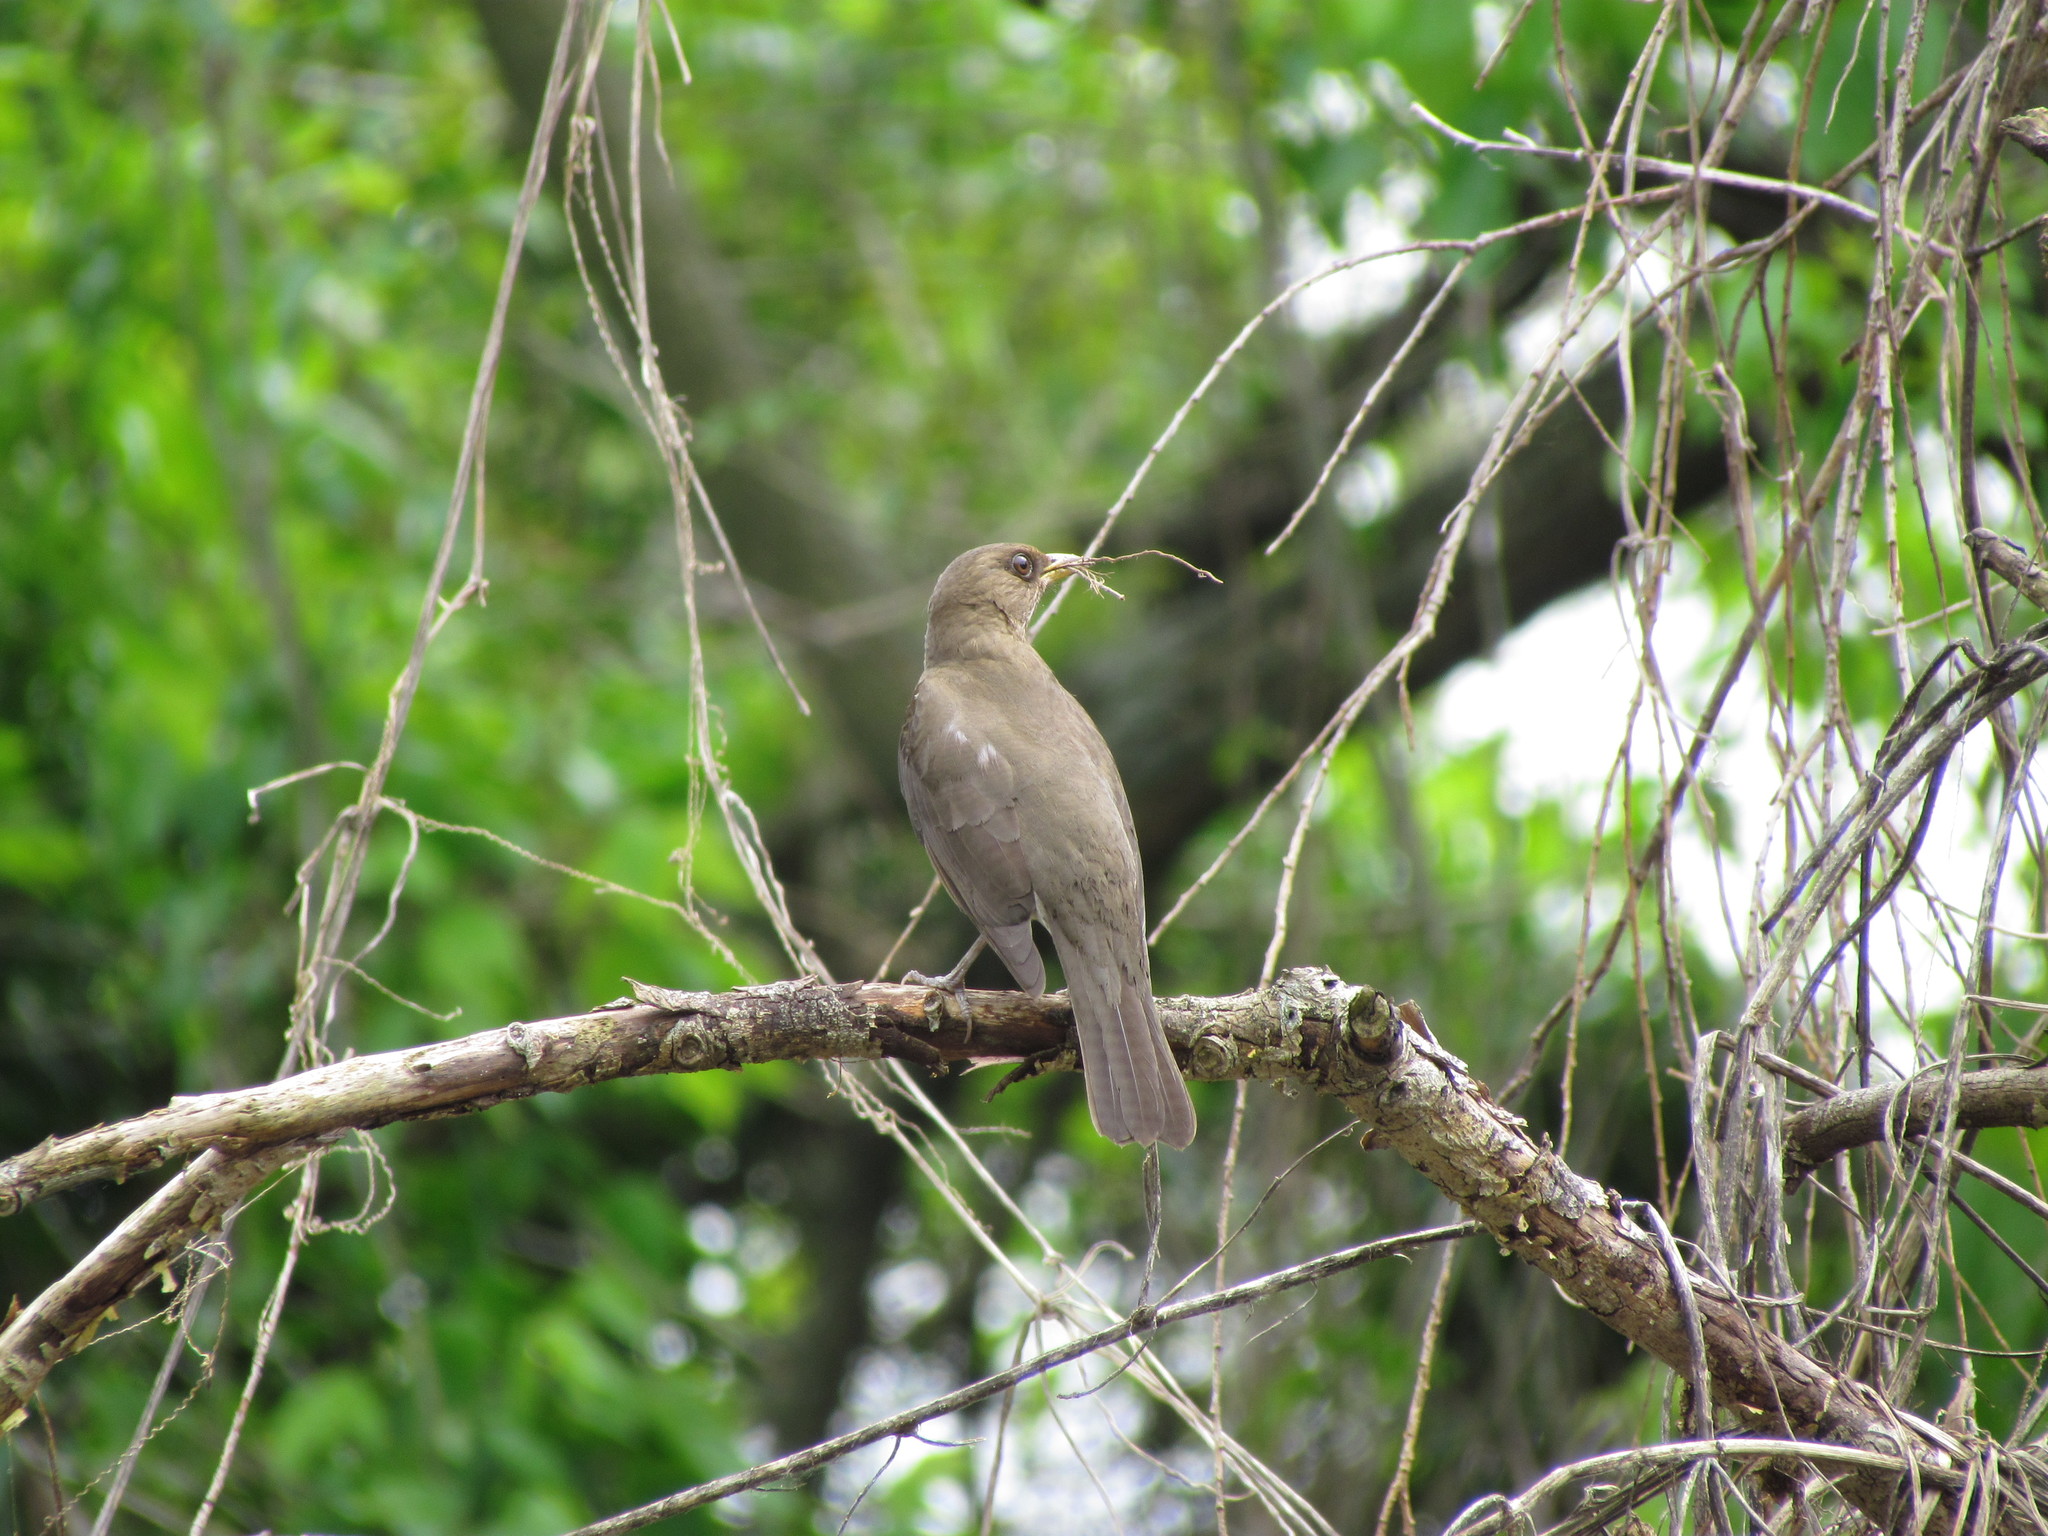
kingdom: Animalia
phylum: Chordata
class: Aves
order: Passeriformes
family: Turdidae
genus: Turdus
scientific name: Turdus amaurochalinus
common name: Creamy-bellied thrush
